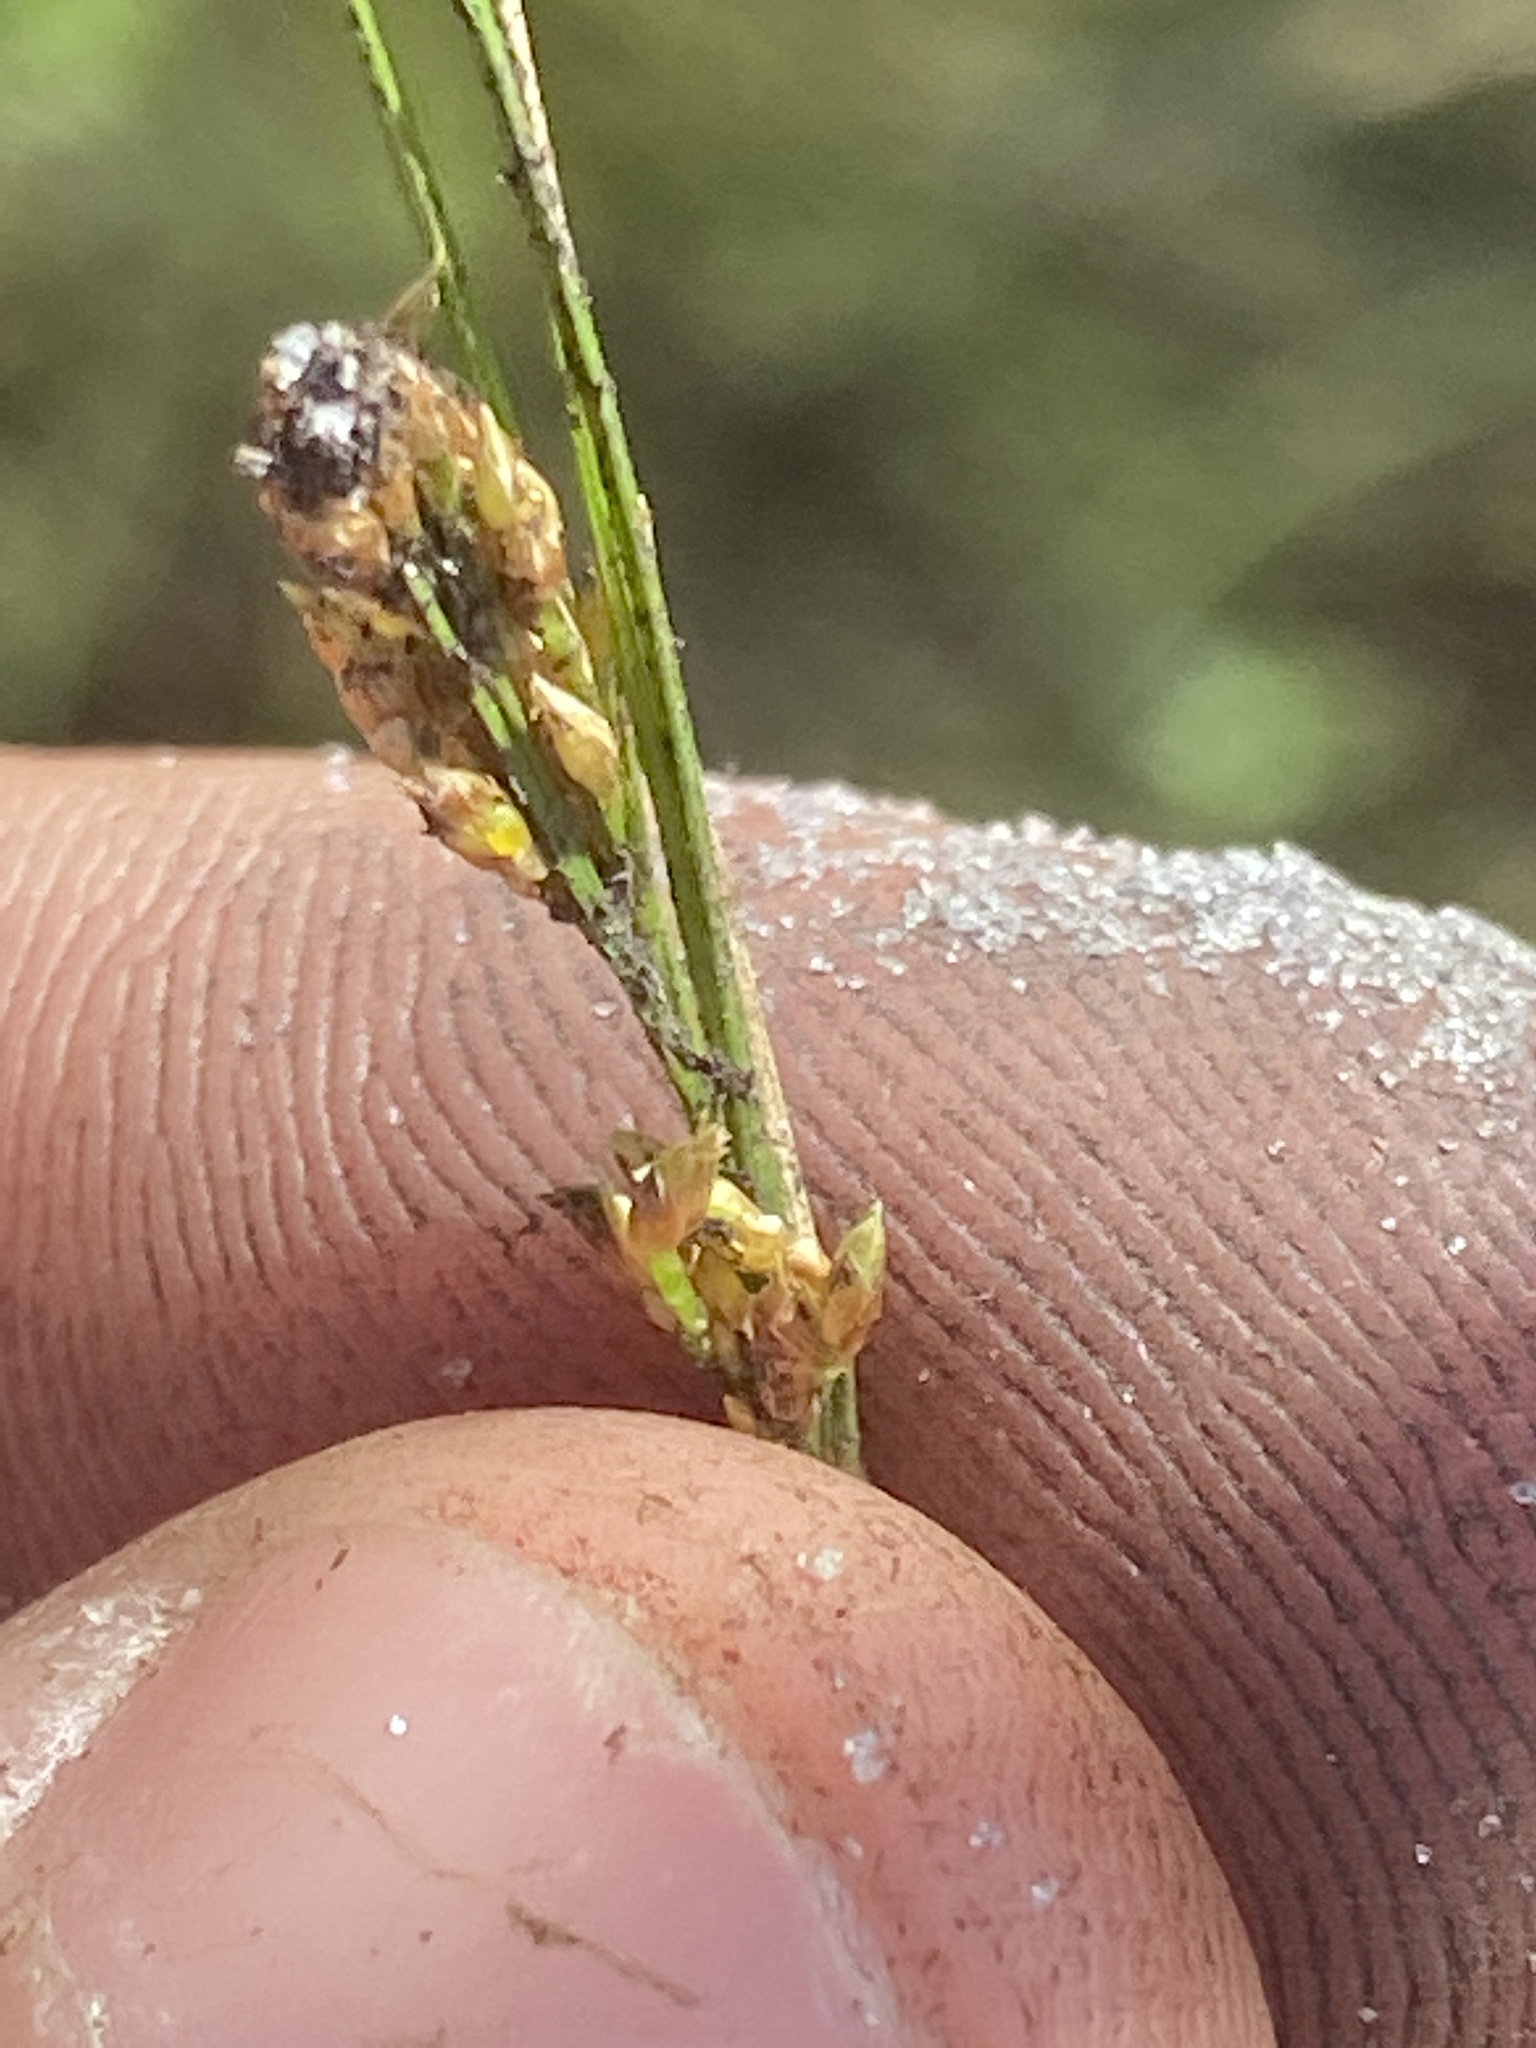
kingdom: Plantae
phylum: Tracheophyta
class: Liliopsida
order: Poales
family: Cyperaceae
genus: Rhynchospora
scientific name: Rhynchospora pusilla
